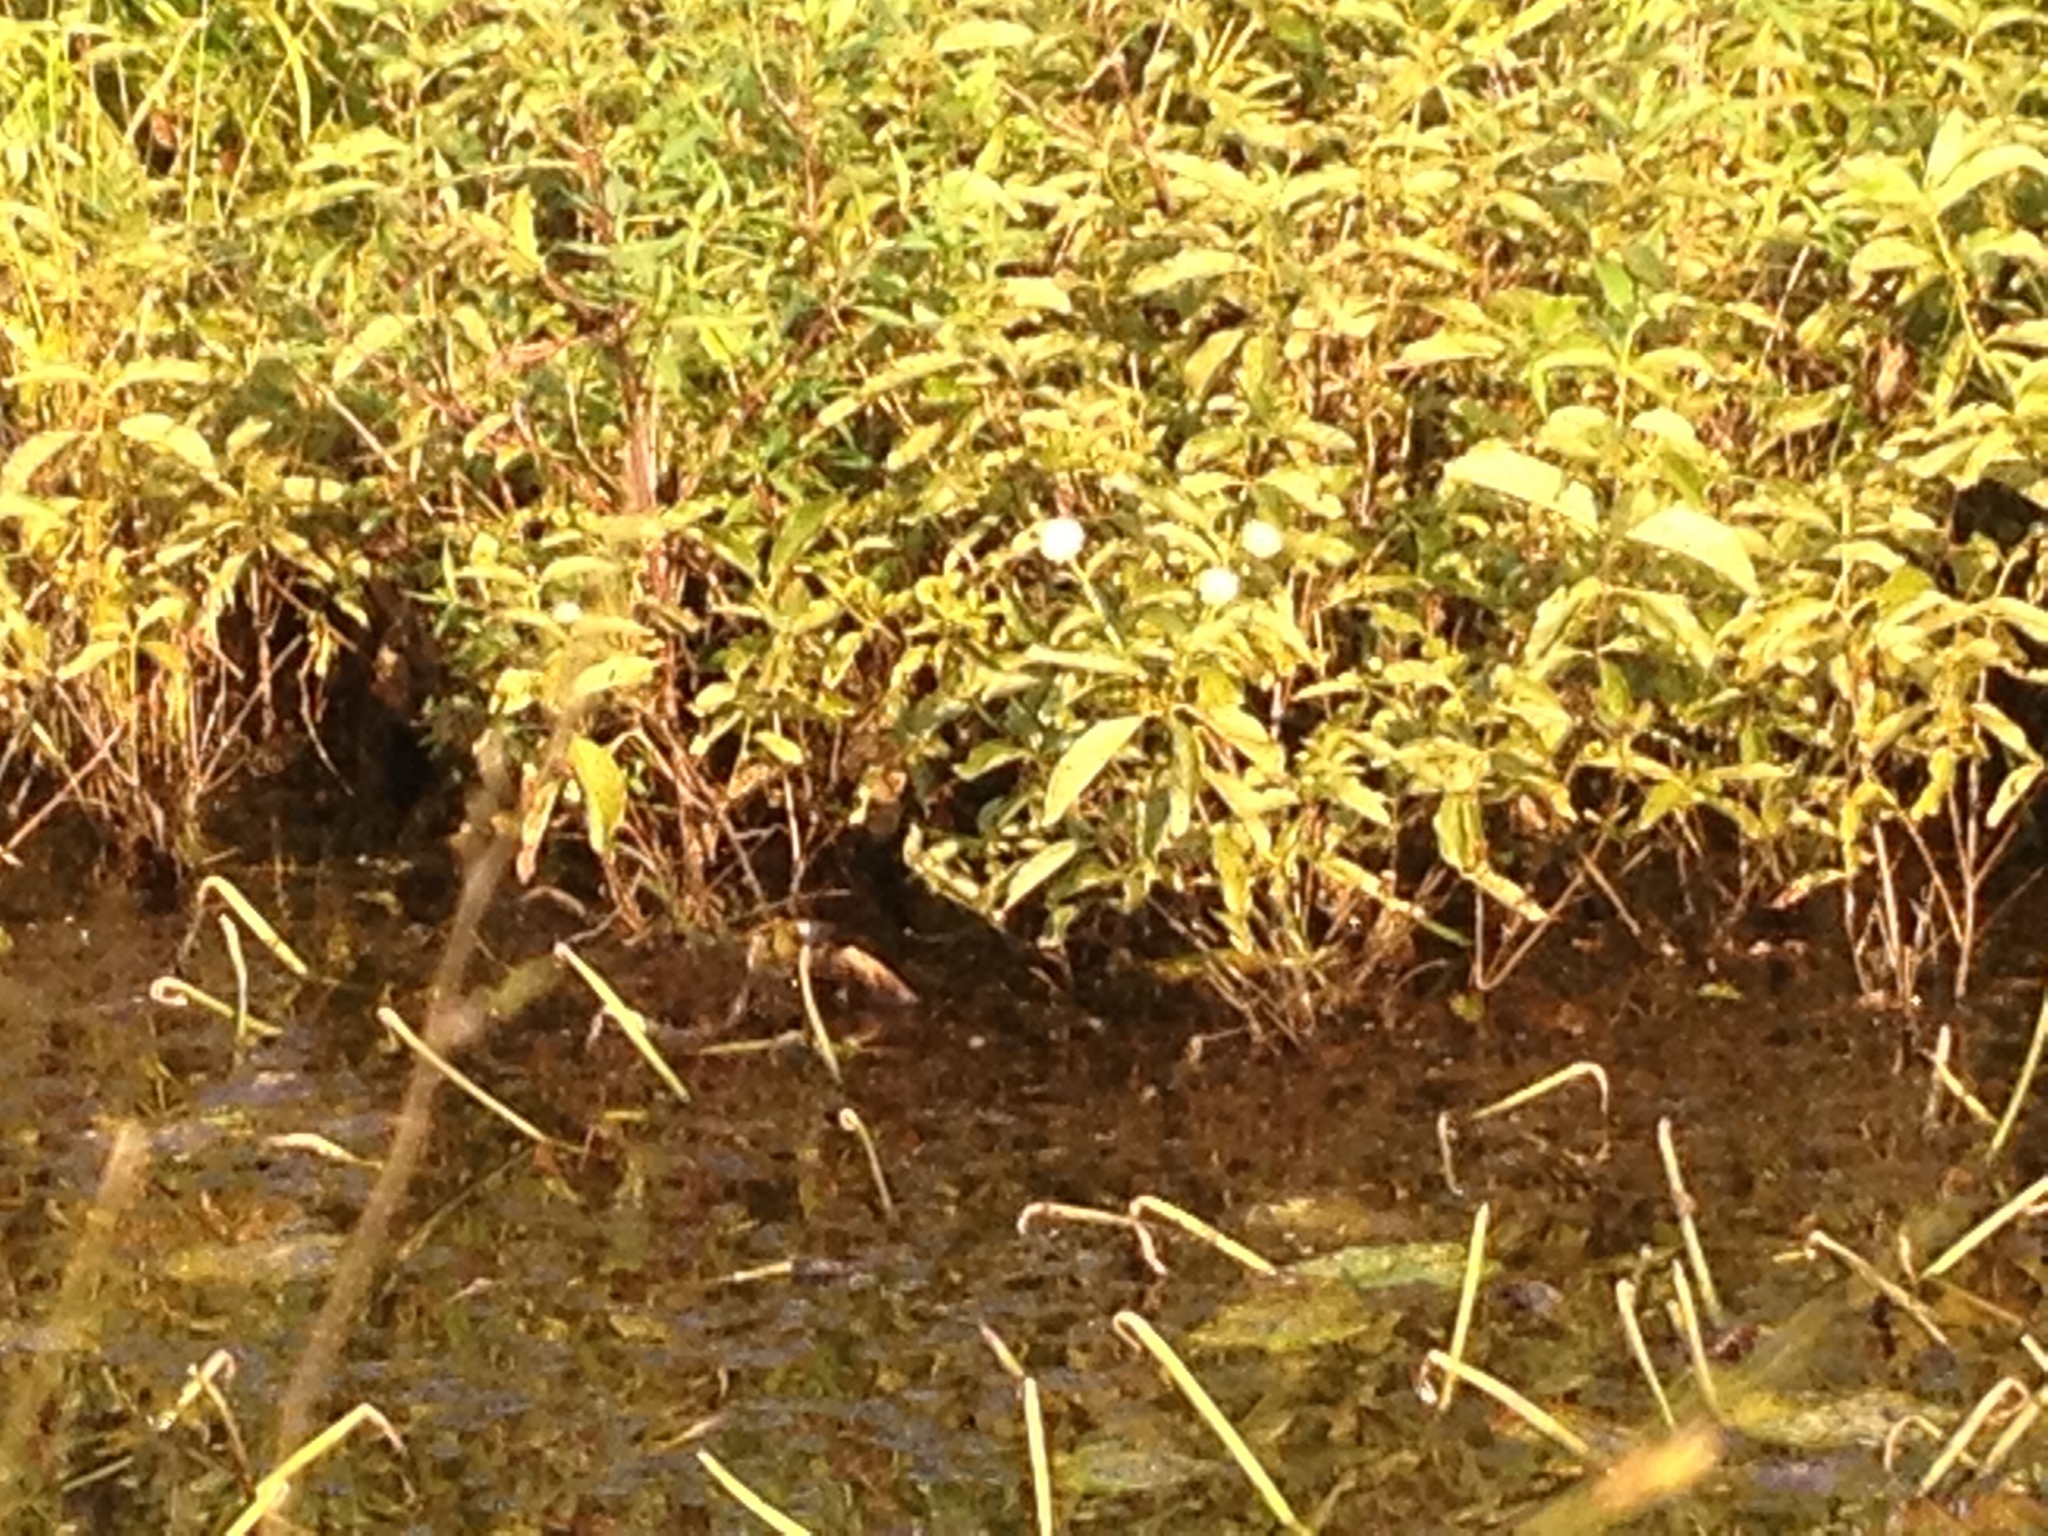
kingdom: Plantae
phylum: Tracheophyta
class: Magnoliopsida
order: Gentianales
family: Rubiaceae
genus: Cephalanthus
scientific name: Cephalanthus occidentalis
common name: Button-willow
